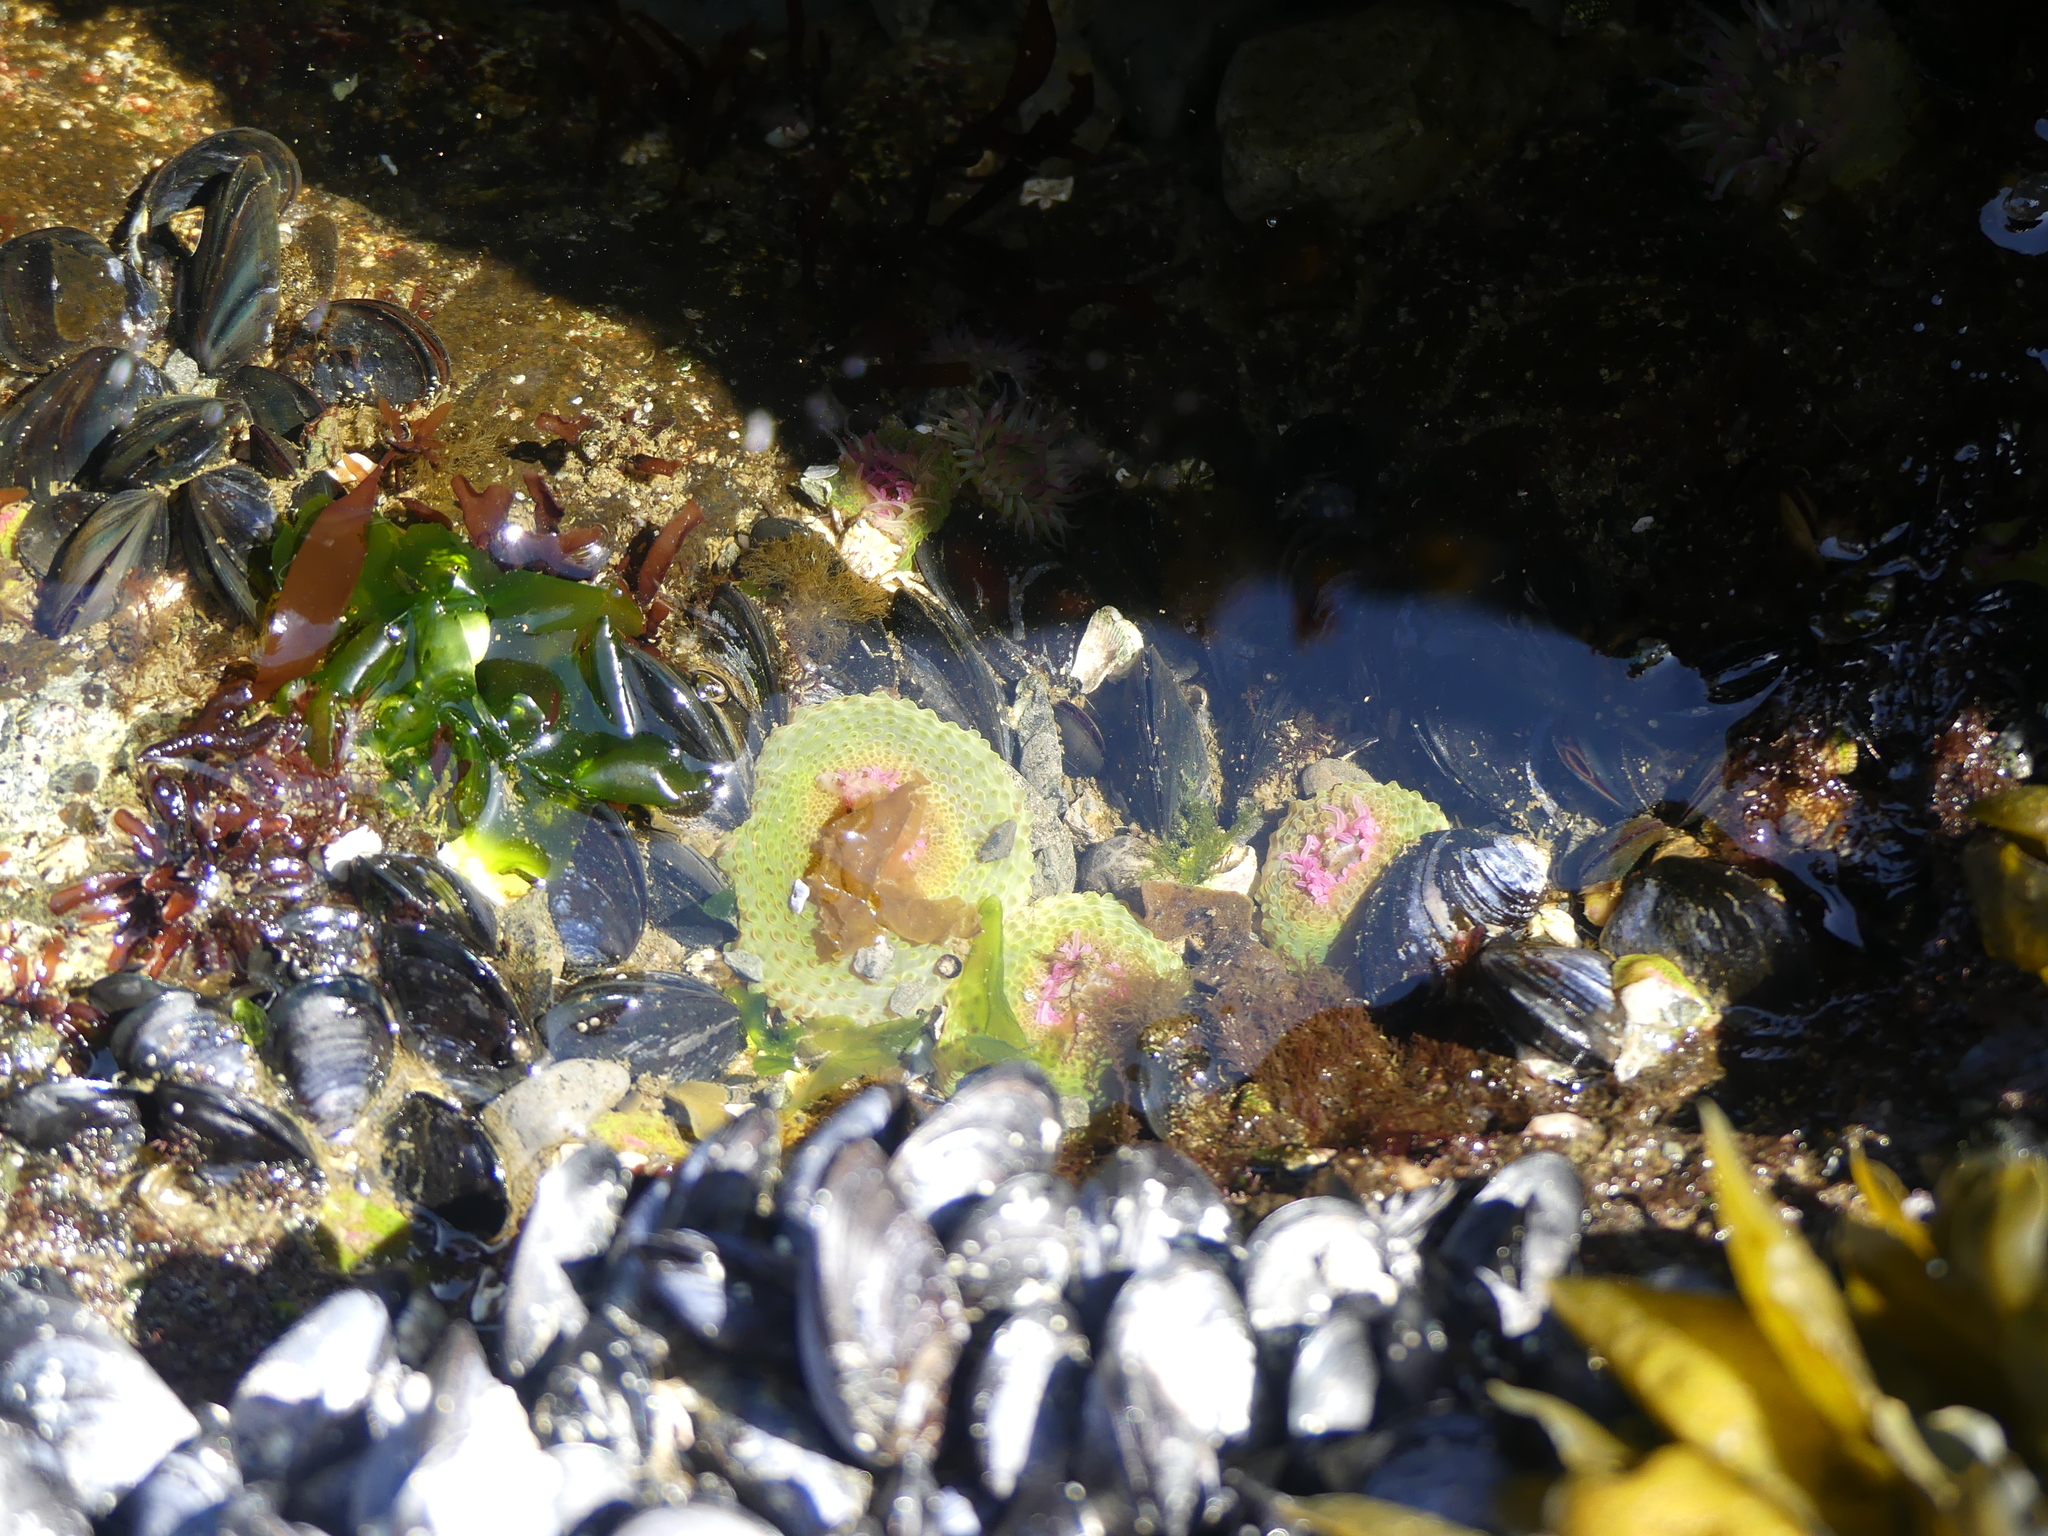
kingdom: Animalia
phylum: Cnidaria
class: Anthozoa
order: Actiniaria
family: Actiniidae
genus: Anthopleura
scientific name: Anthopleura elegantissima
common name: Clonal anemone
